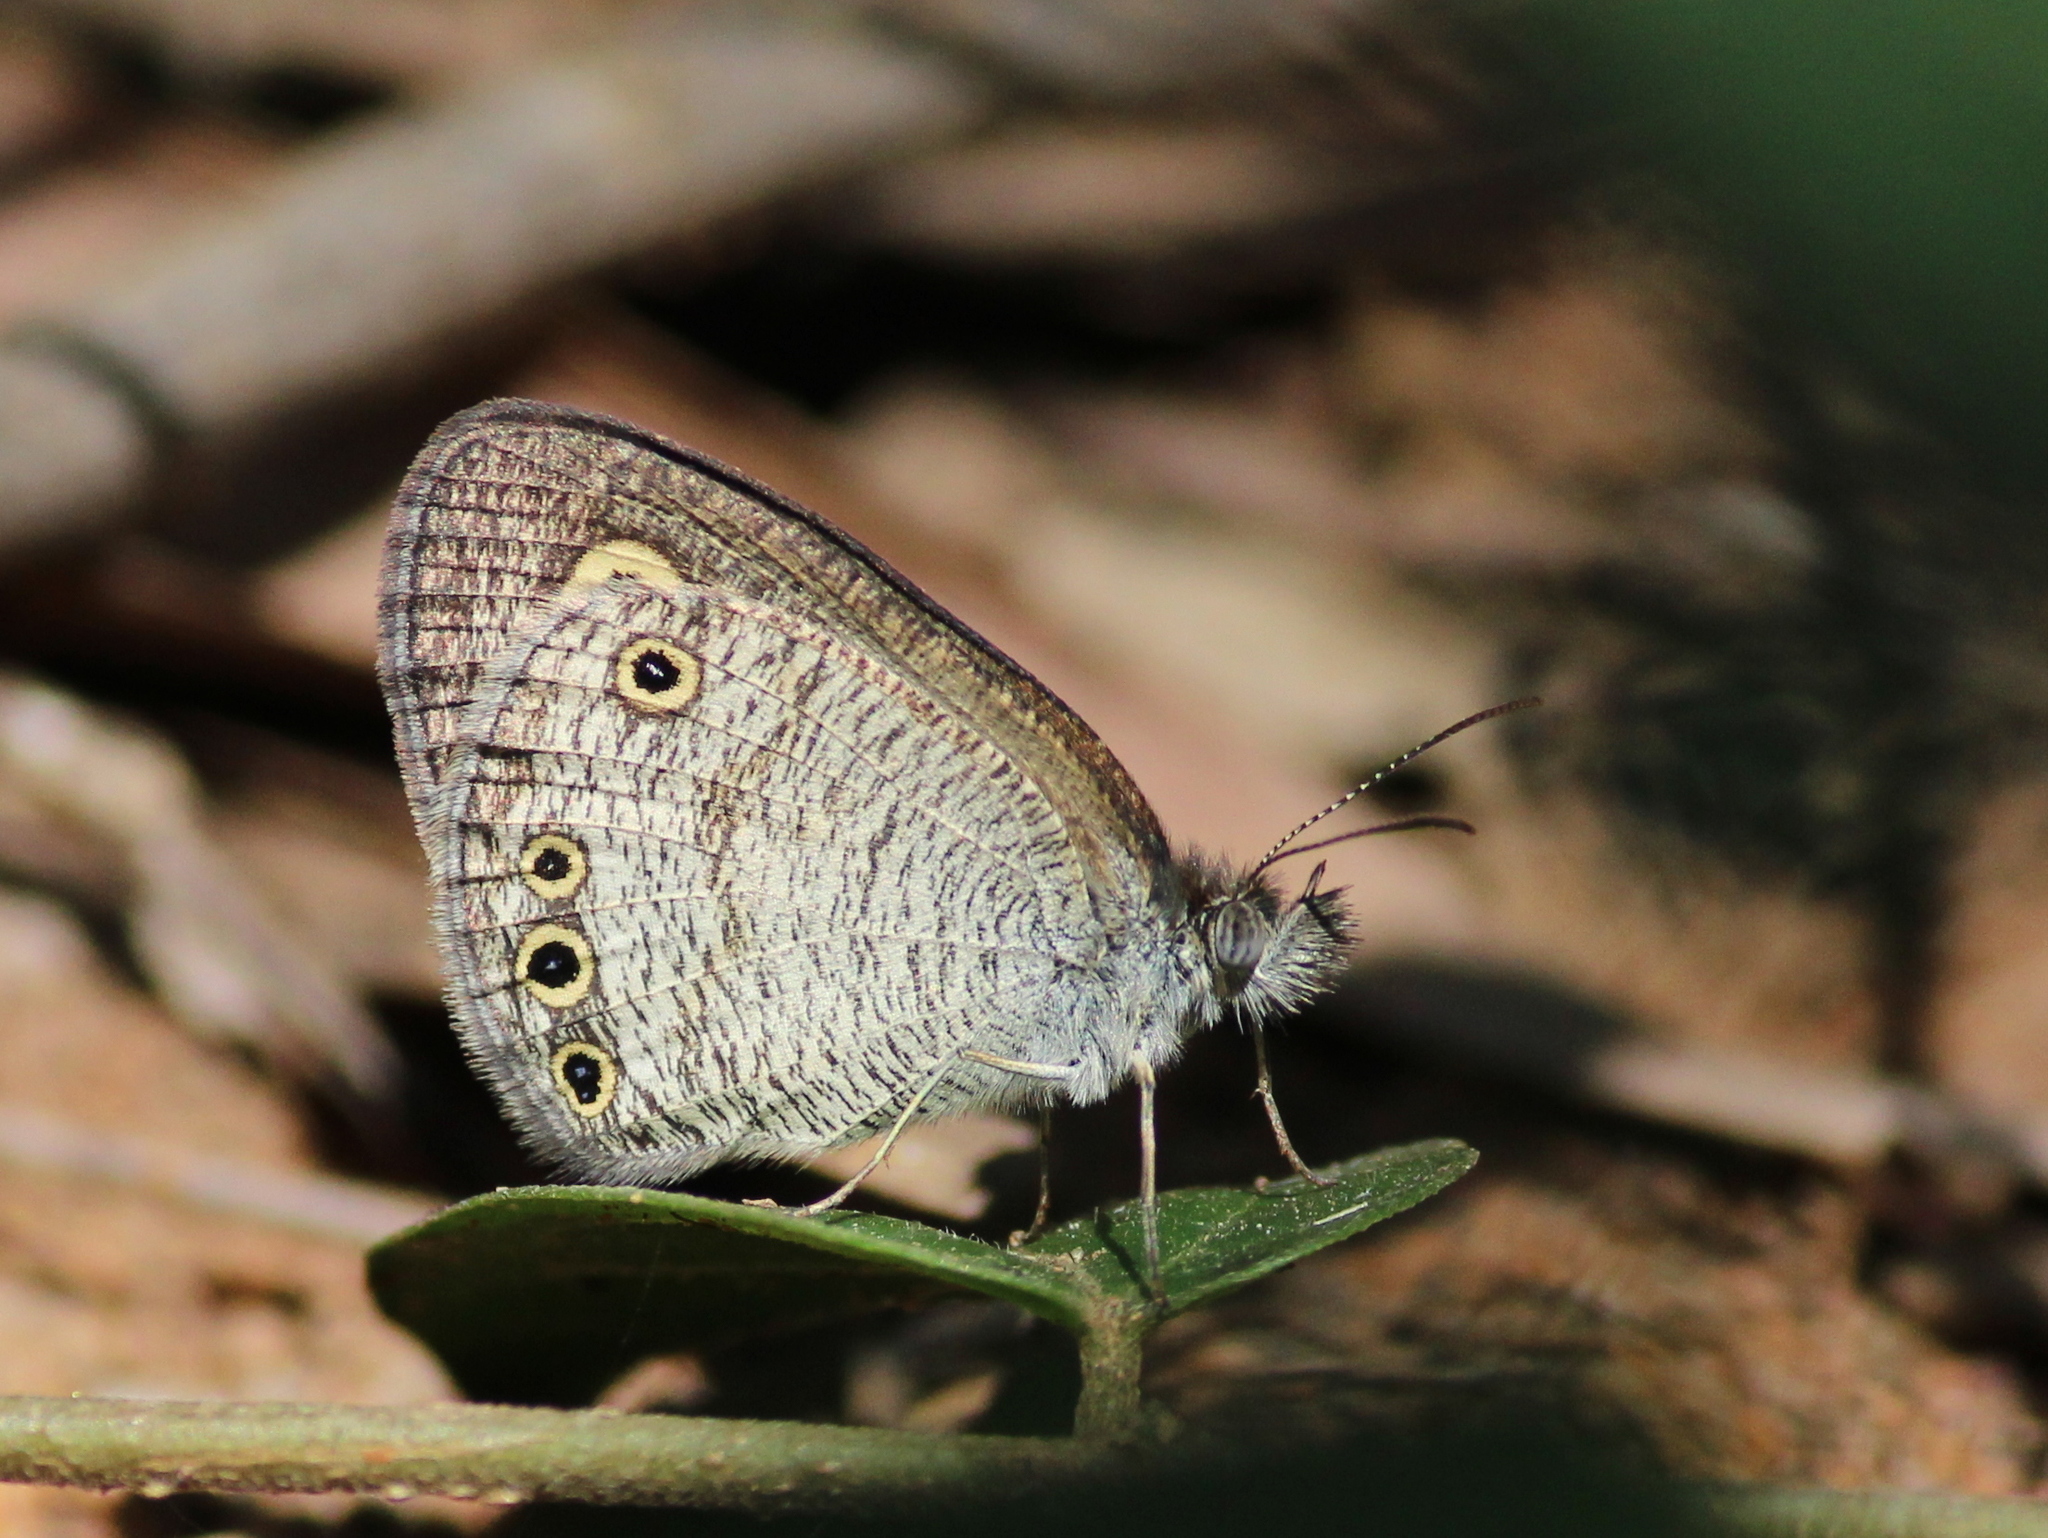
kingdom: Animalia
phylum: Arthropoda
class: Insecta
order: Lepidoptera
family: Nymphalidae
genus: Ypthima
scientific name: Ypthima huebneri
